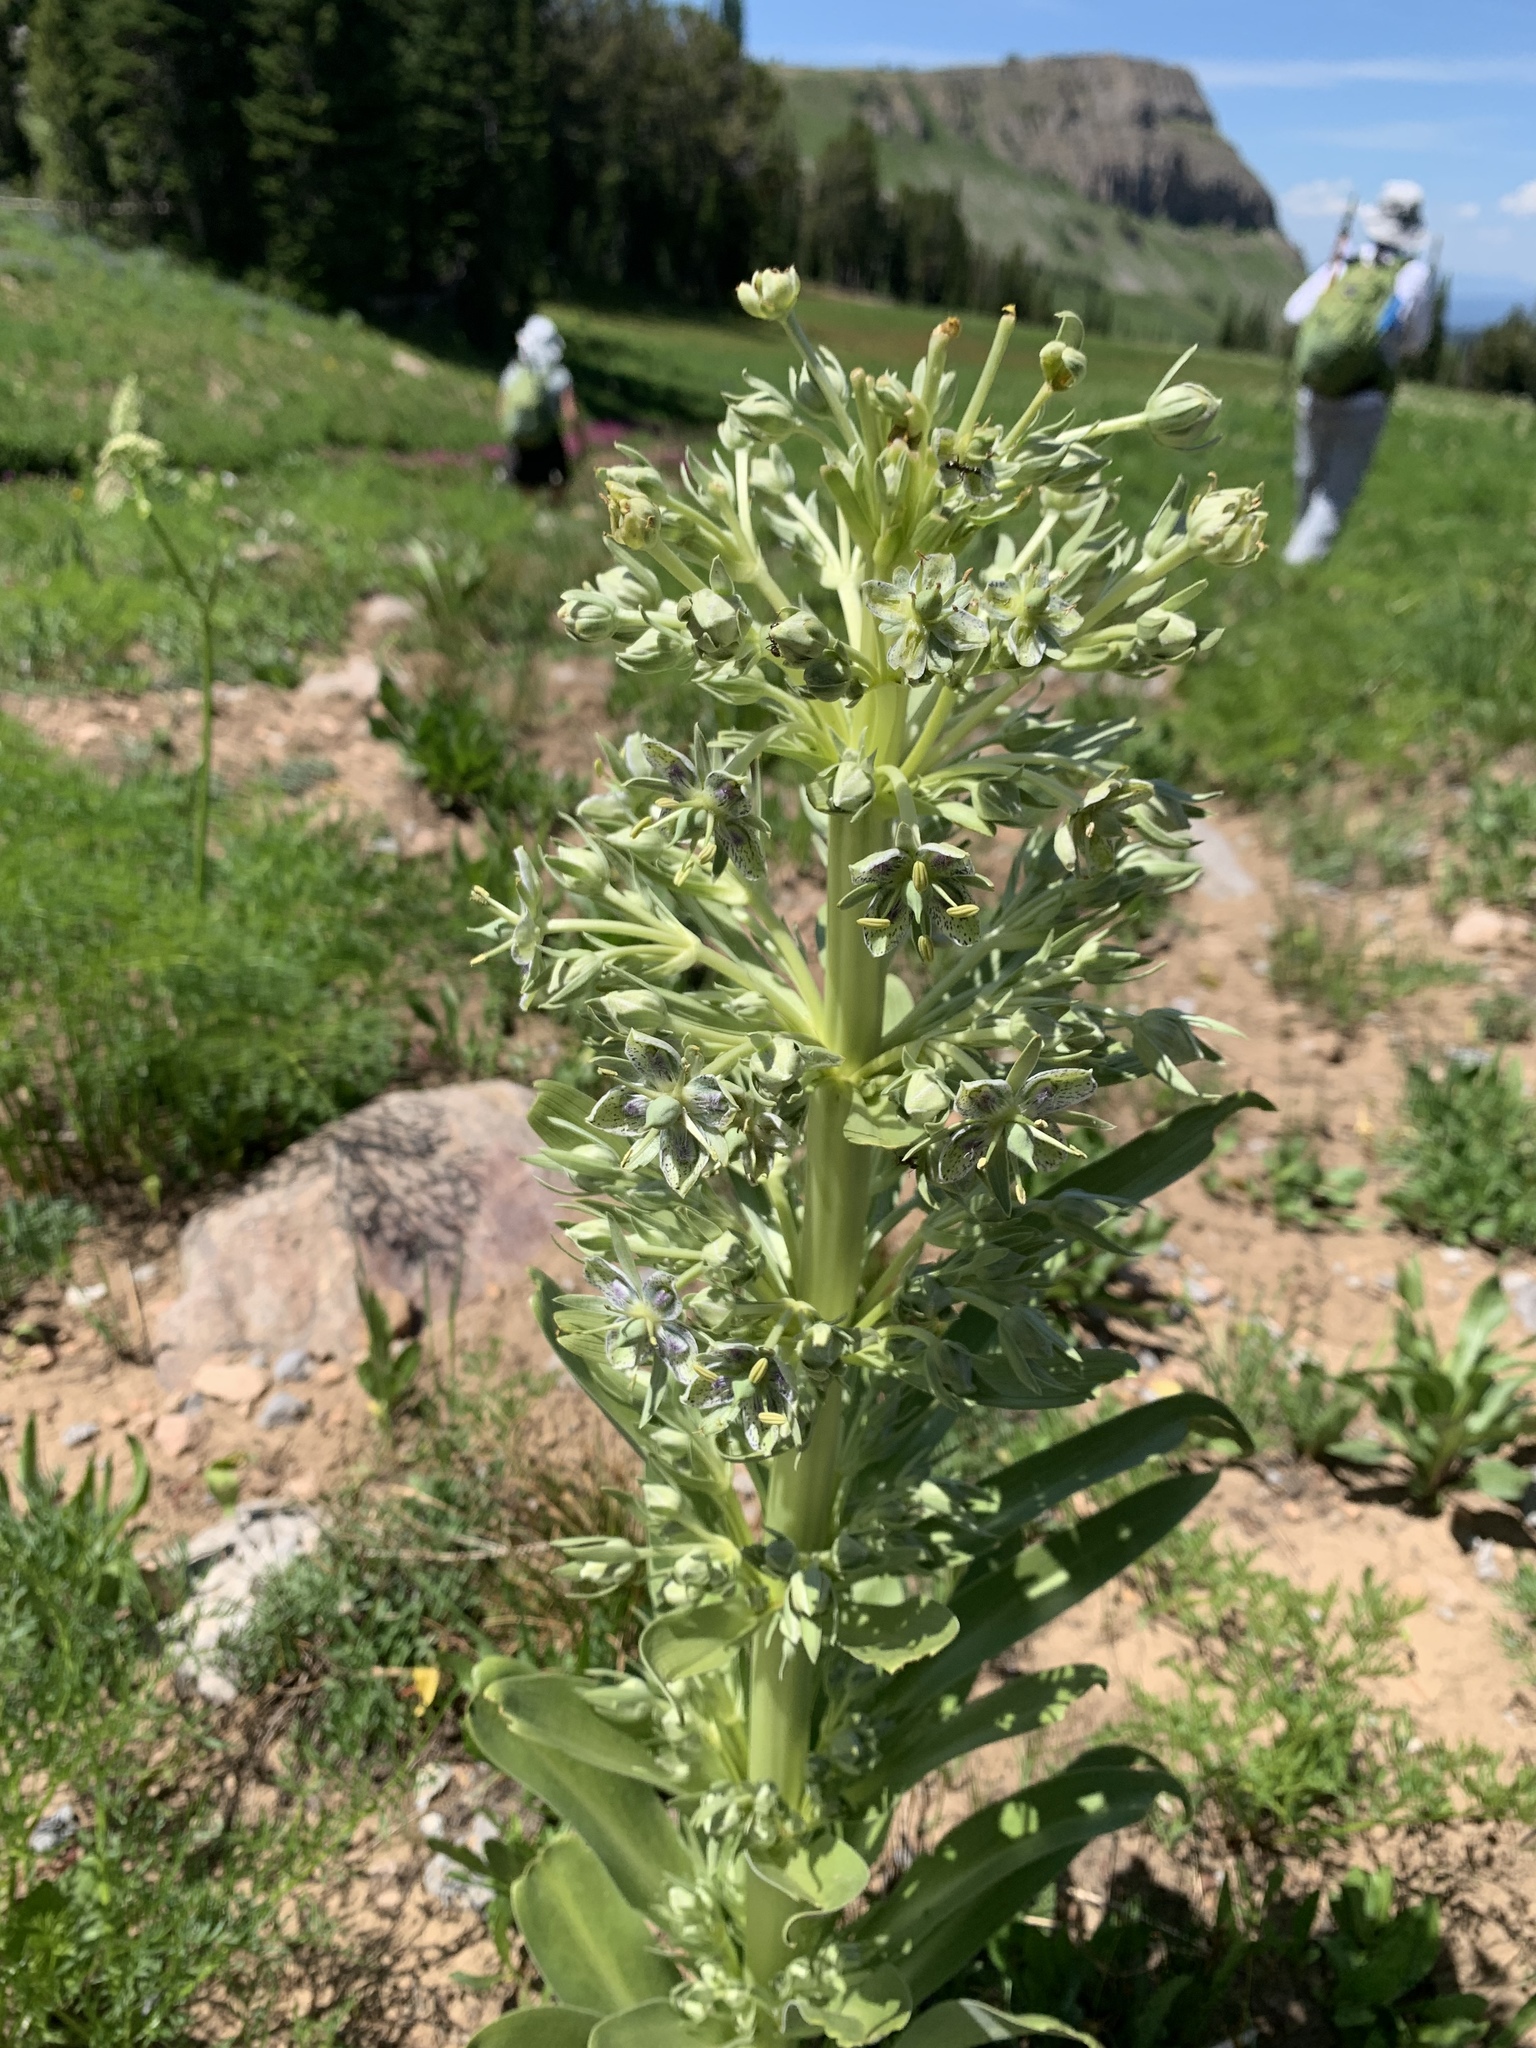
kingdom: Plantae
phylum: Tracheophyta
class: Magnoliopsida
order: Gentianales
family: Gentianaceae
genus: Frasera
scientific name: Frasera speciosa
